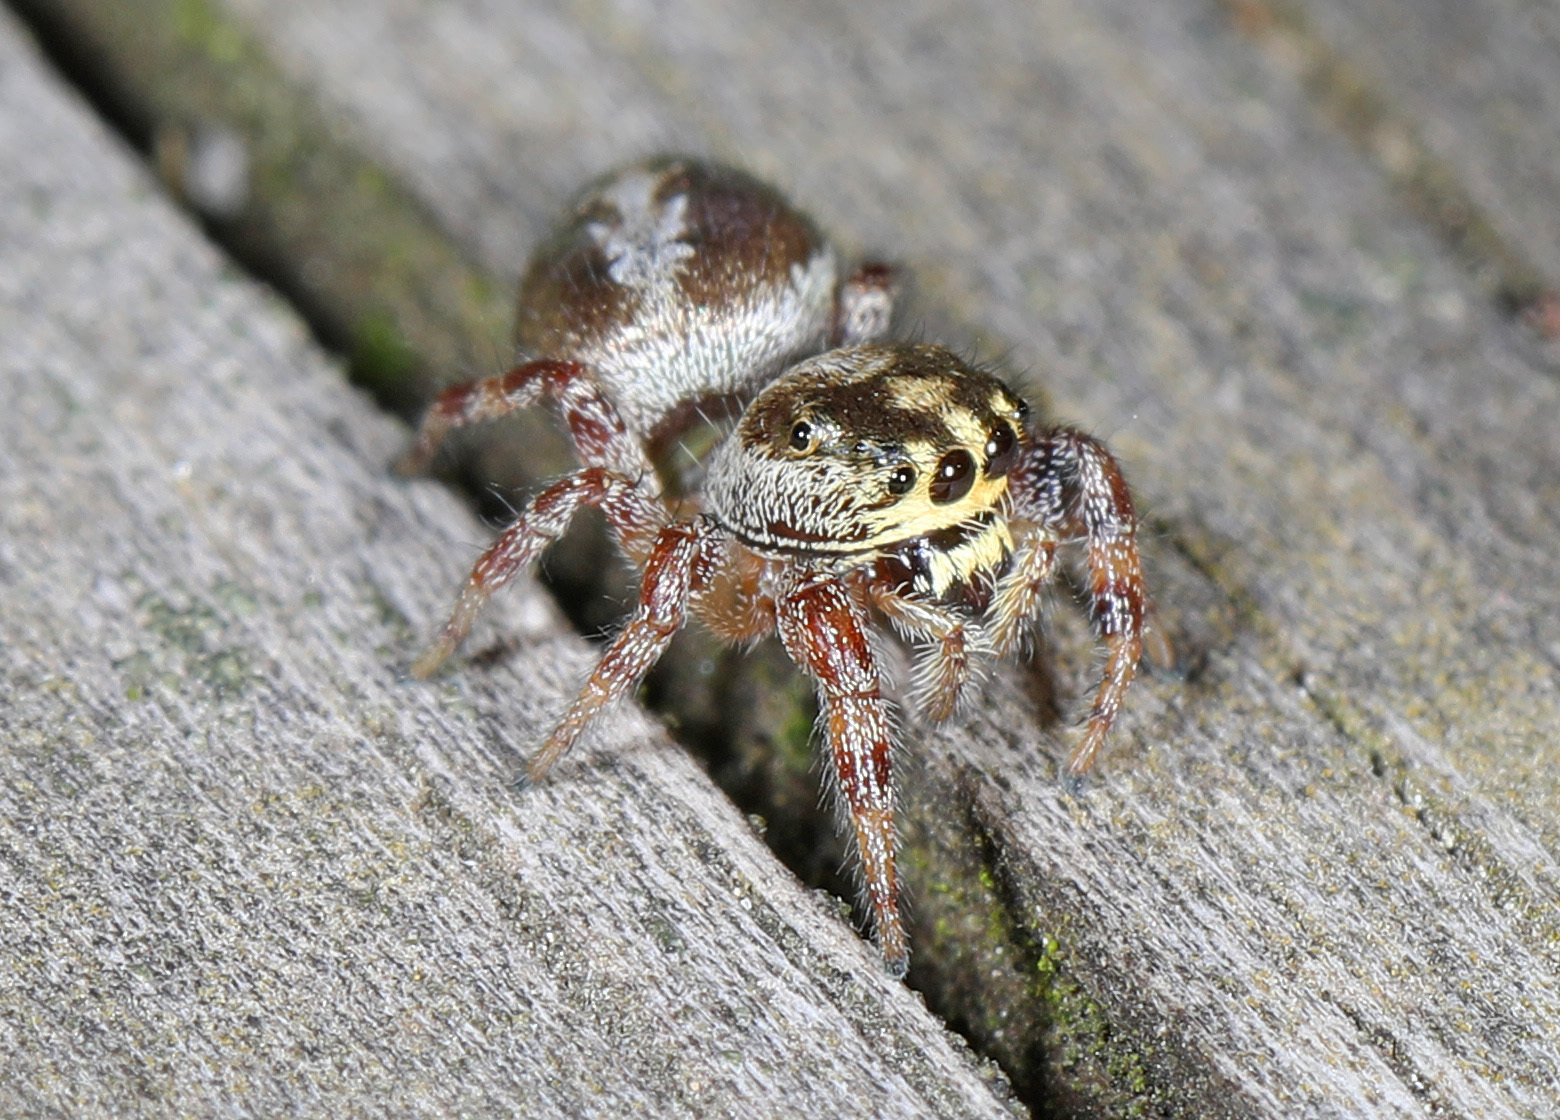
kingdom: Animalia
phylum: Arthropoda
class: Arachnida
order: Araneae
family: Salticidae
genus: Eris
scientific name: Eris floridana
